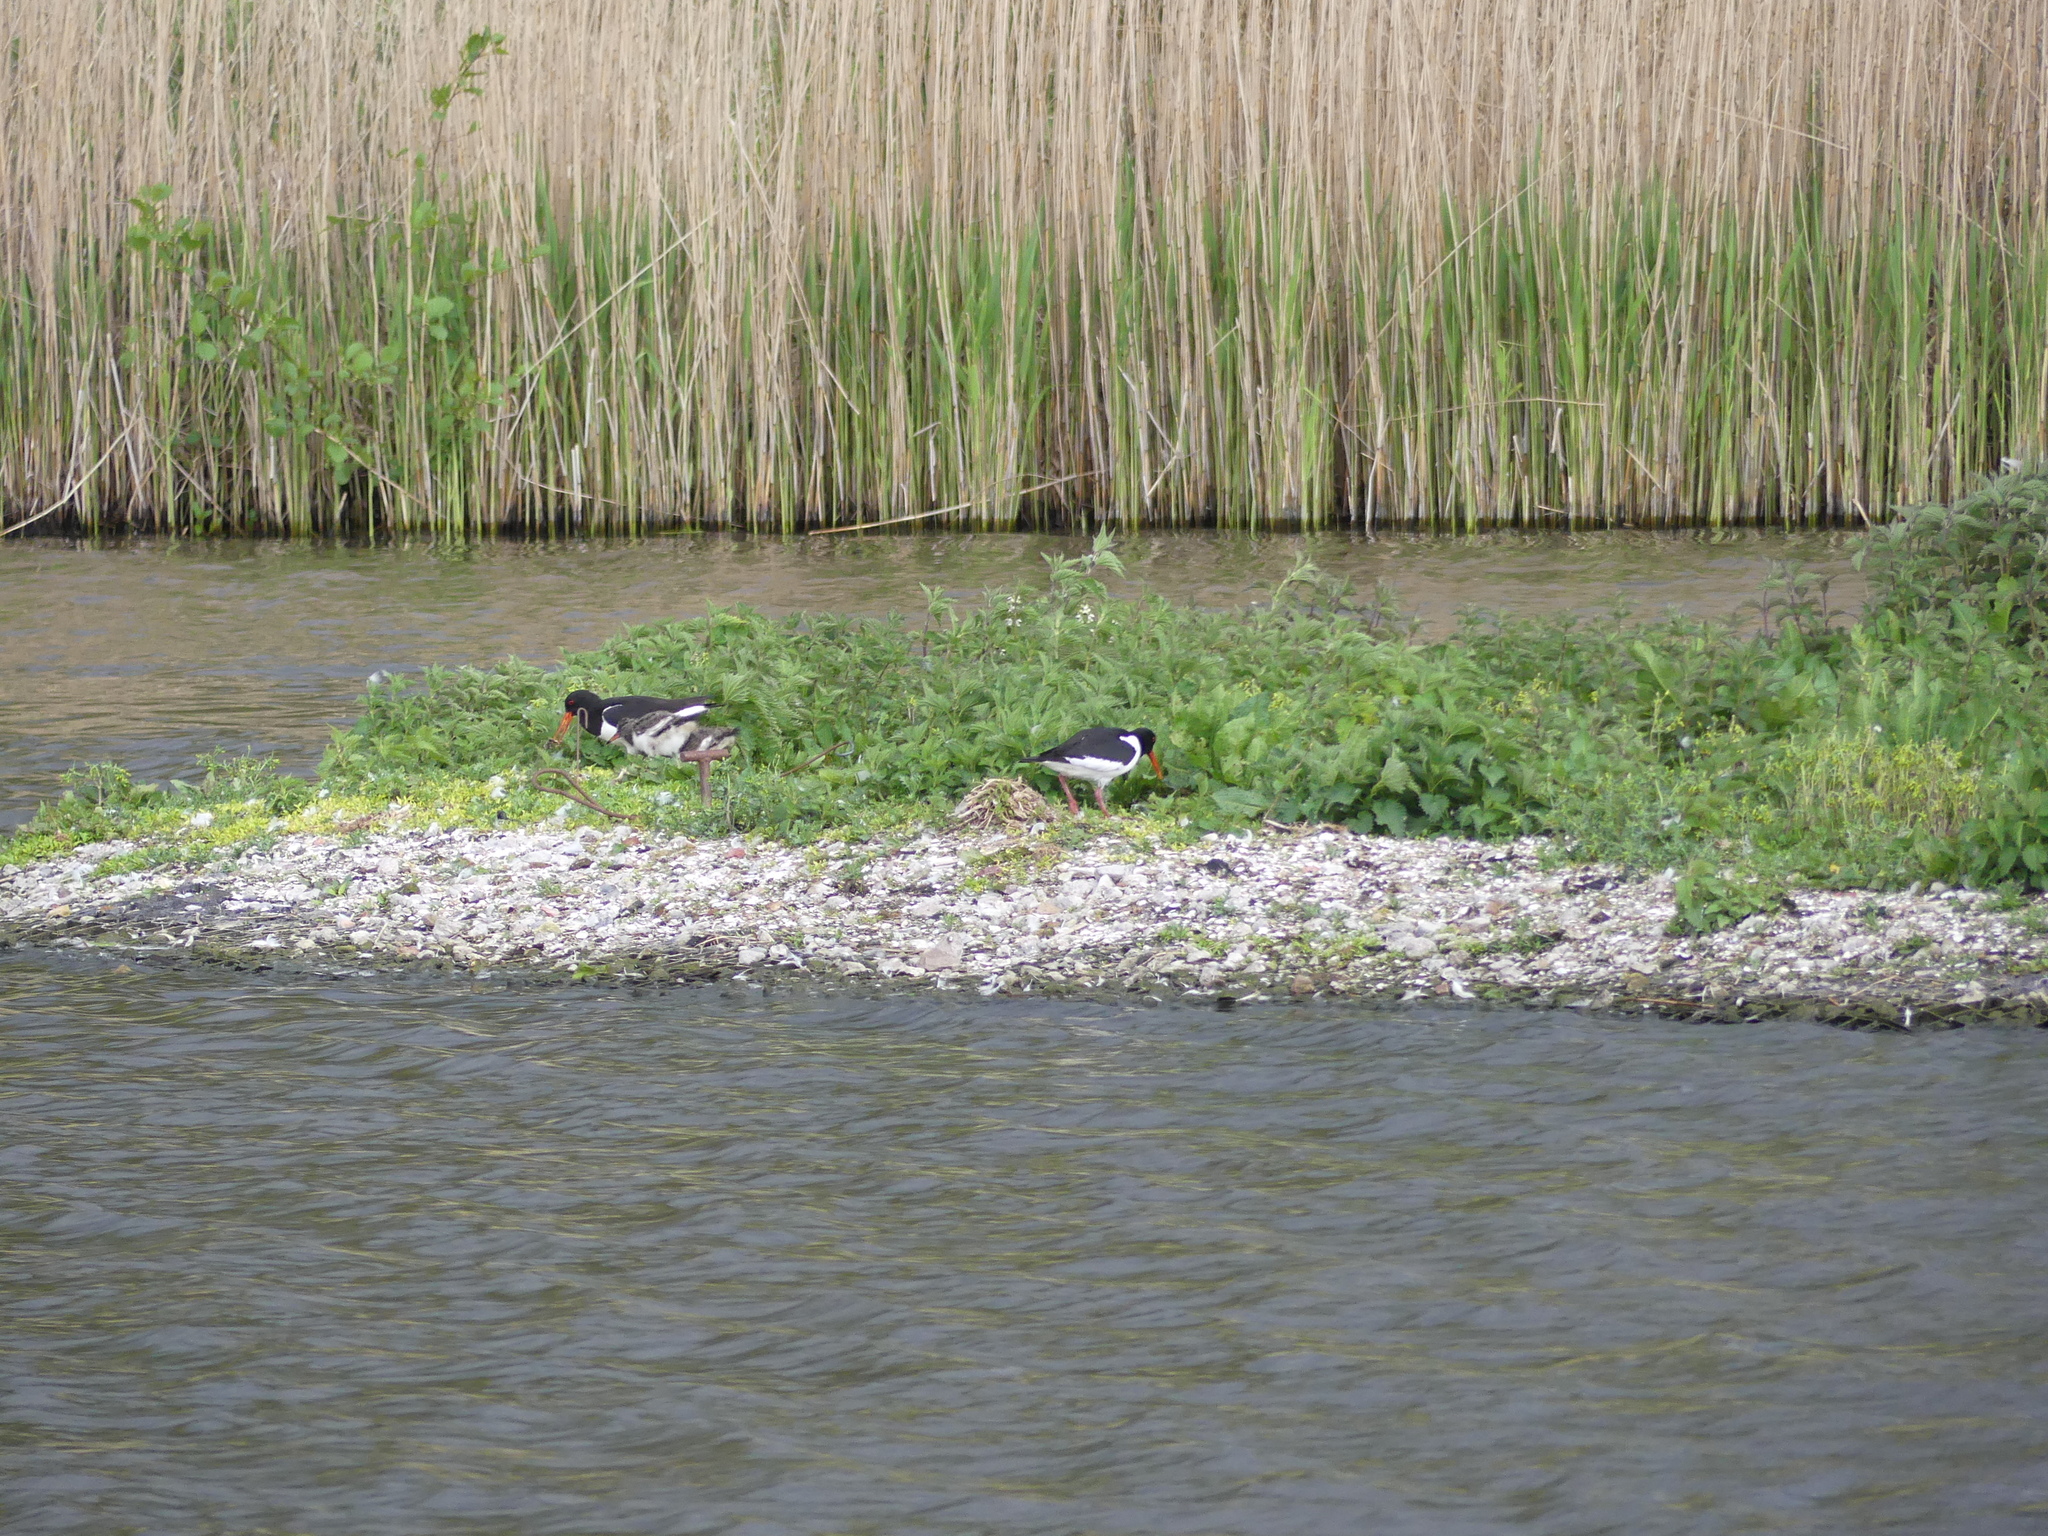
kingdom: Animalia
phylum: Chordata
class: Aves
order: Charadriiformes
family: Haematopodidae
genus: Haematopus
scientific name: Haematopus ostralegus
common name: Eurasian oystercatcher
